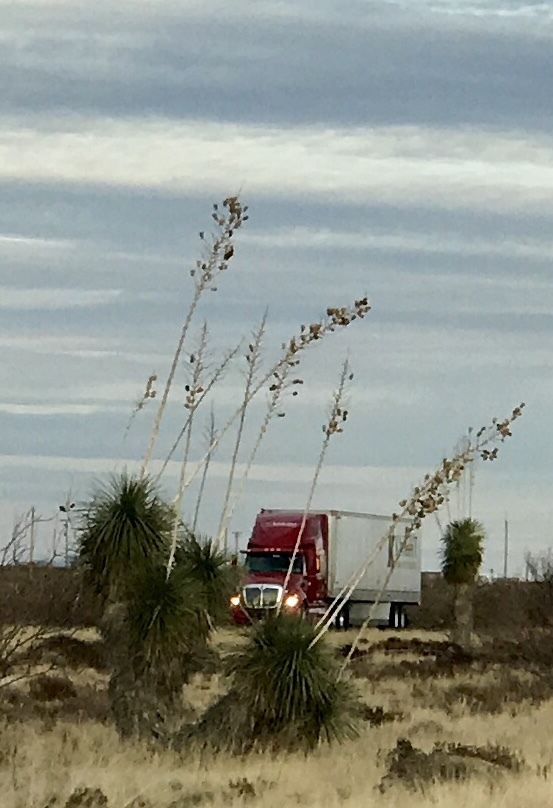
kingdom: Plantae
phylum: Tracheophyta
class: Liliopsida
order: Asparagales
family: Asparagaceae
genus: Yucca
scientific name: Yucca elata
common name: Palmella
